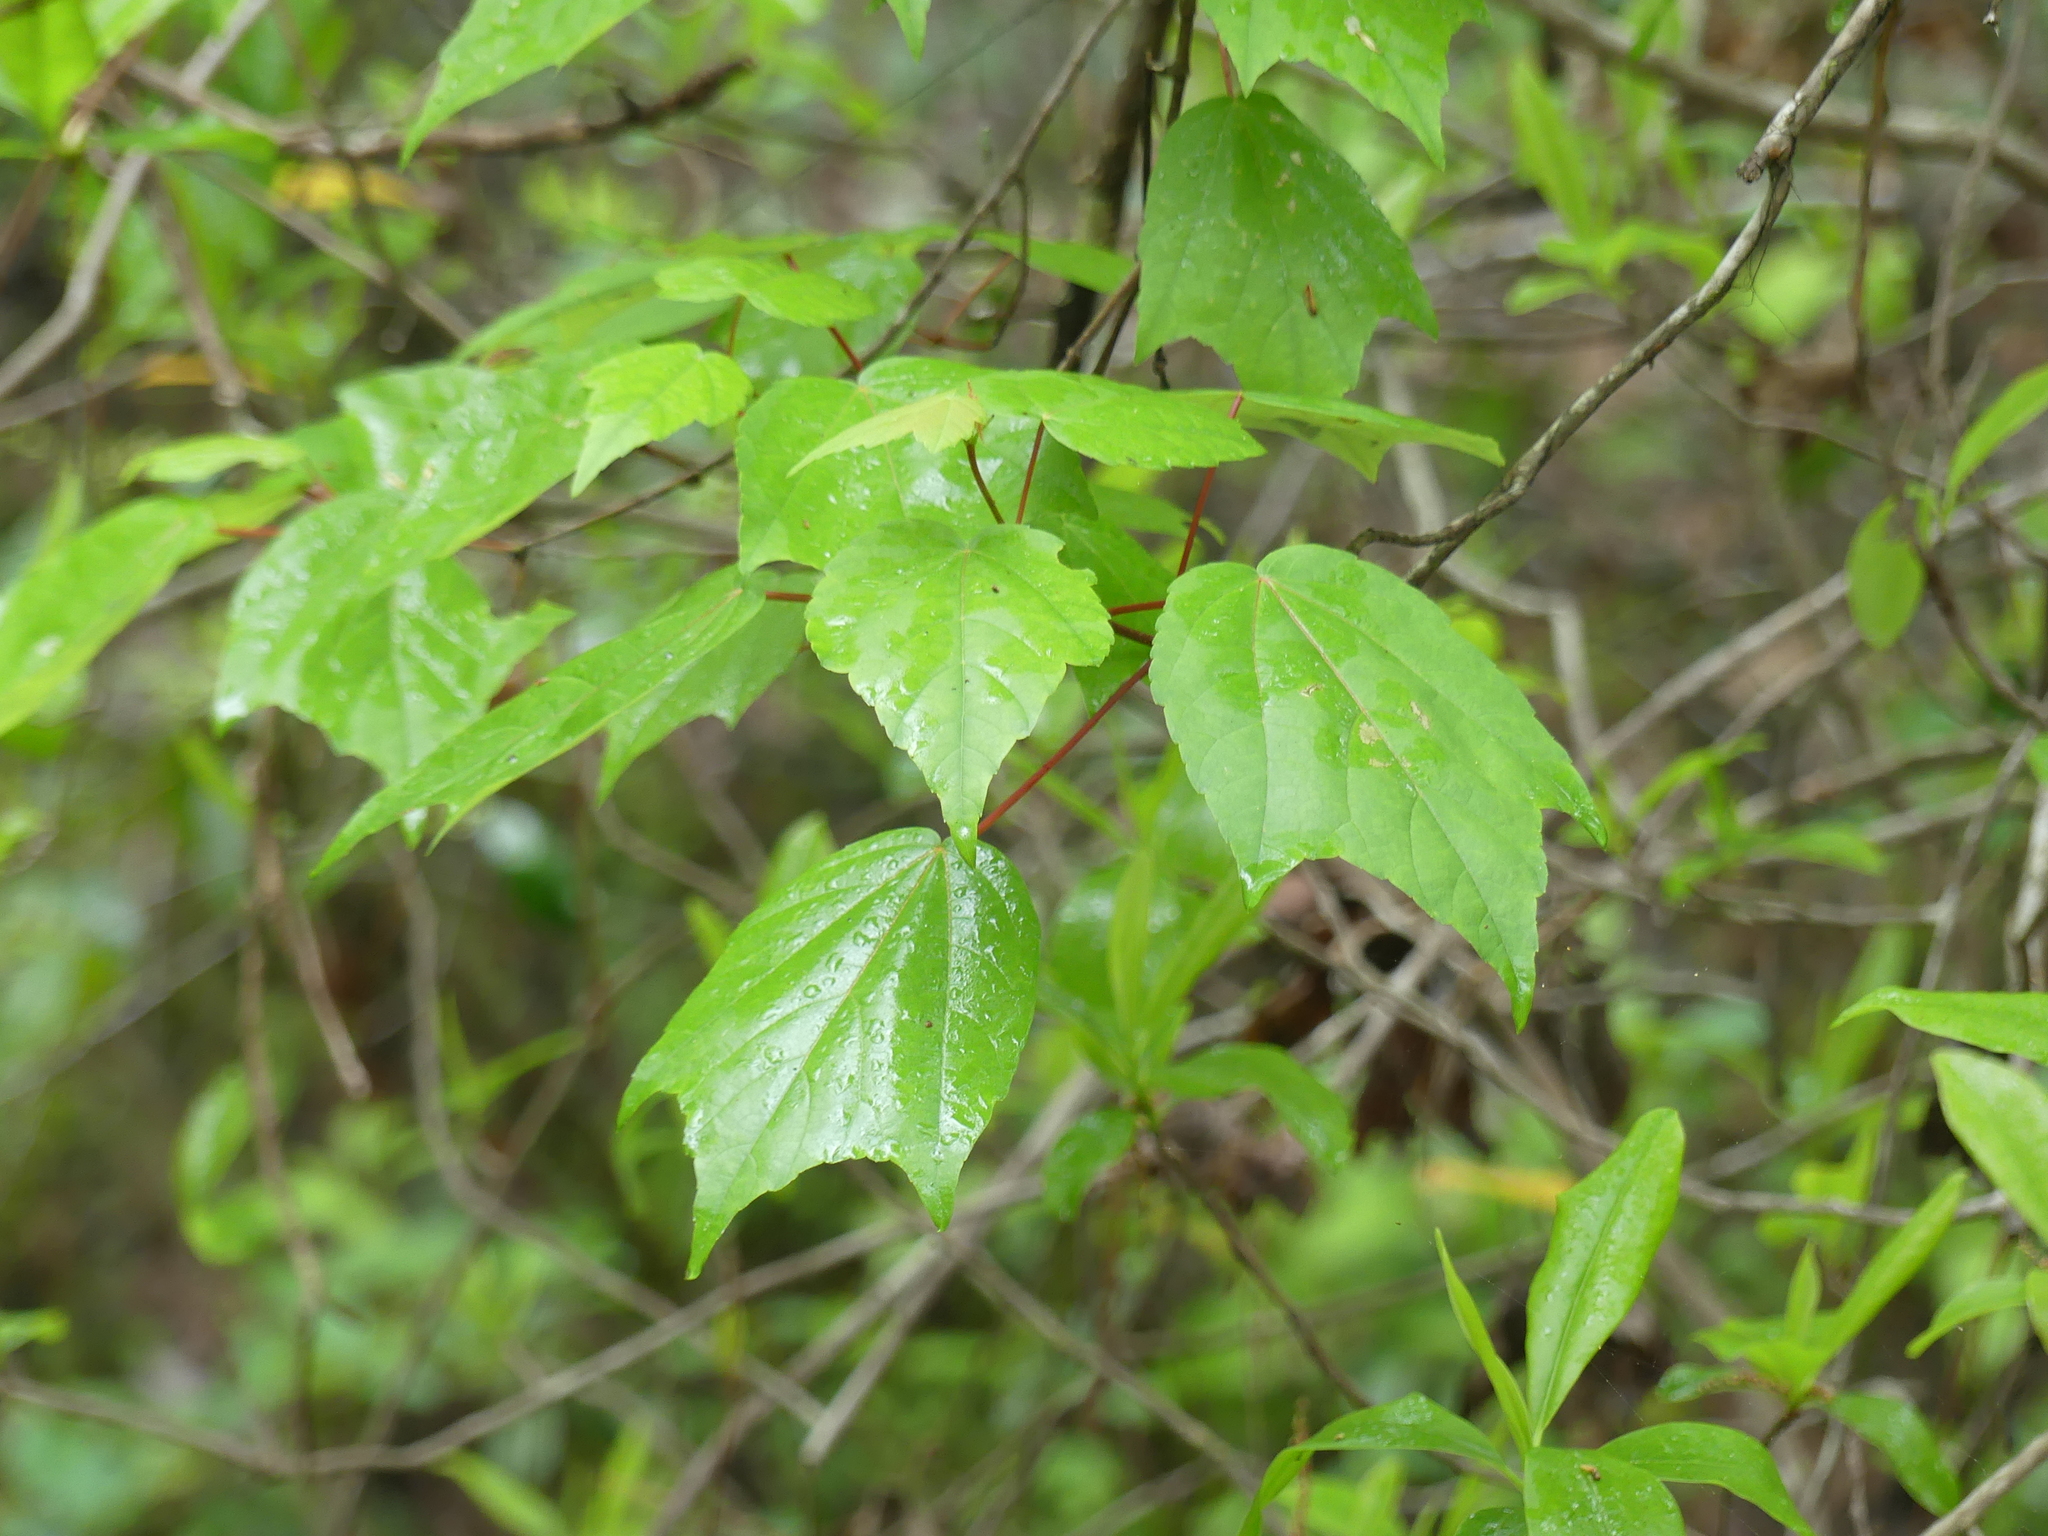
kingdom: Plantae
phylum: Tracheophyta
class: Magnoliopsida
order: Sapindales
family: Sapindaceae
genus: Acer
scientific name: Acer rubrum
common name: Red maple
